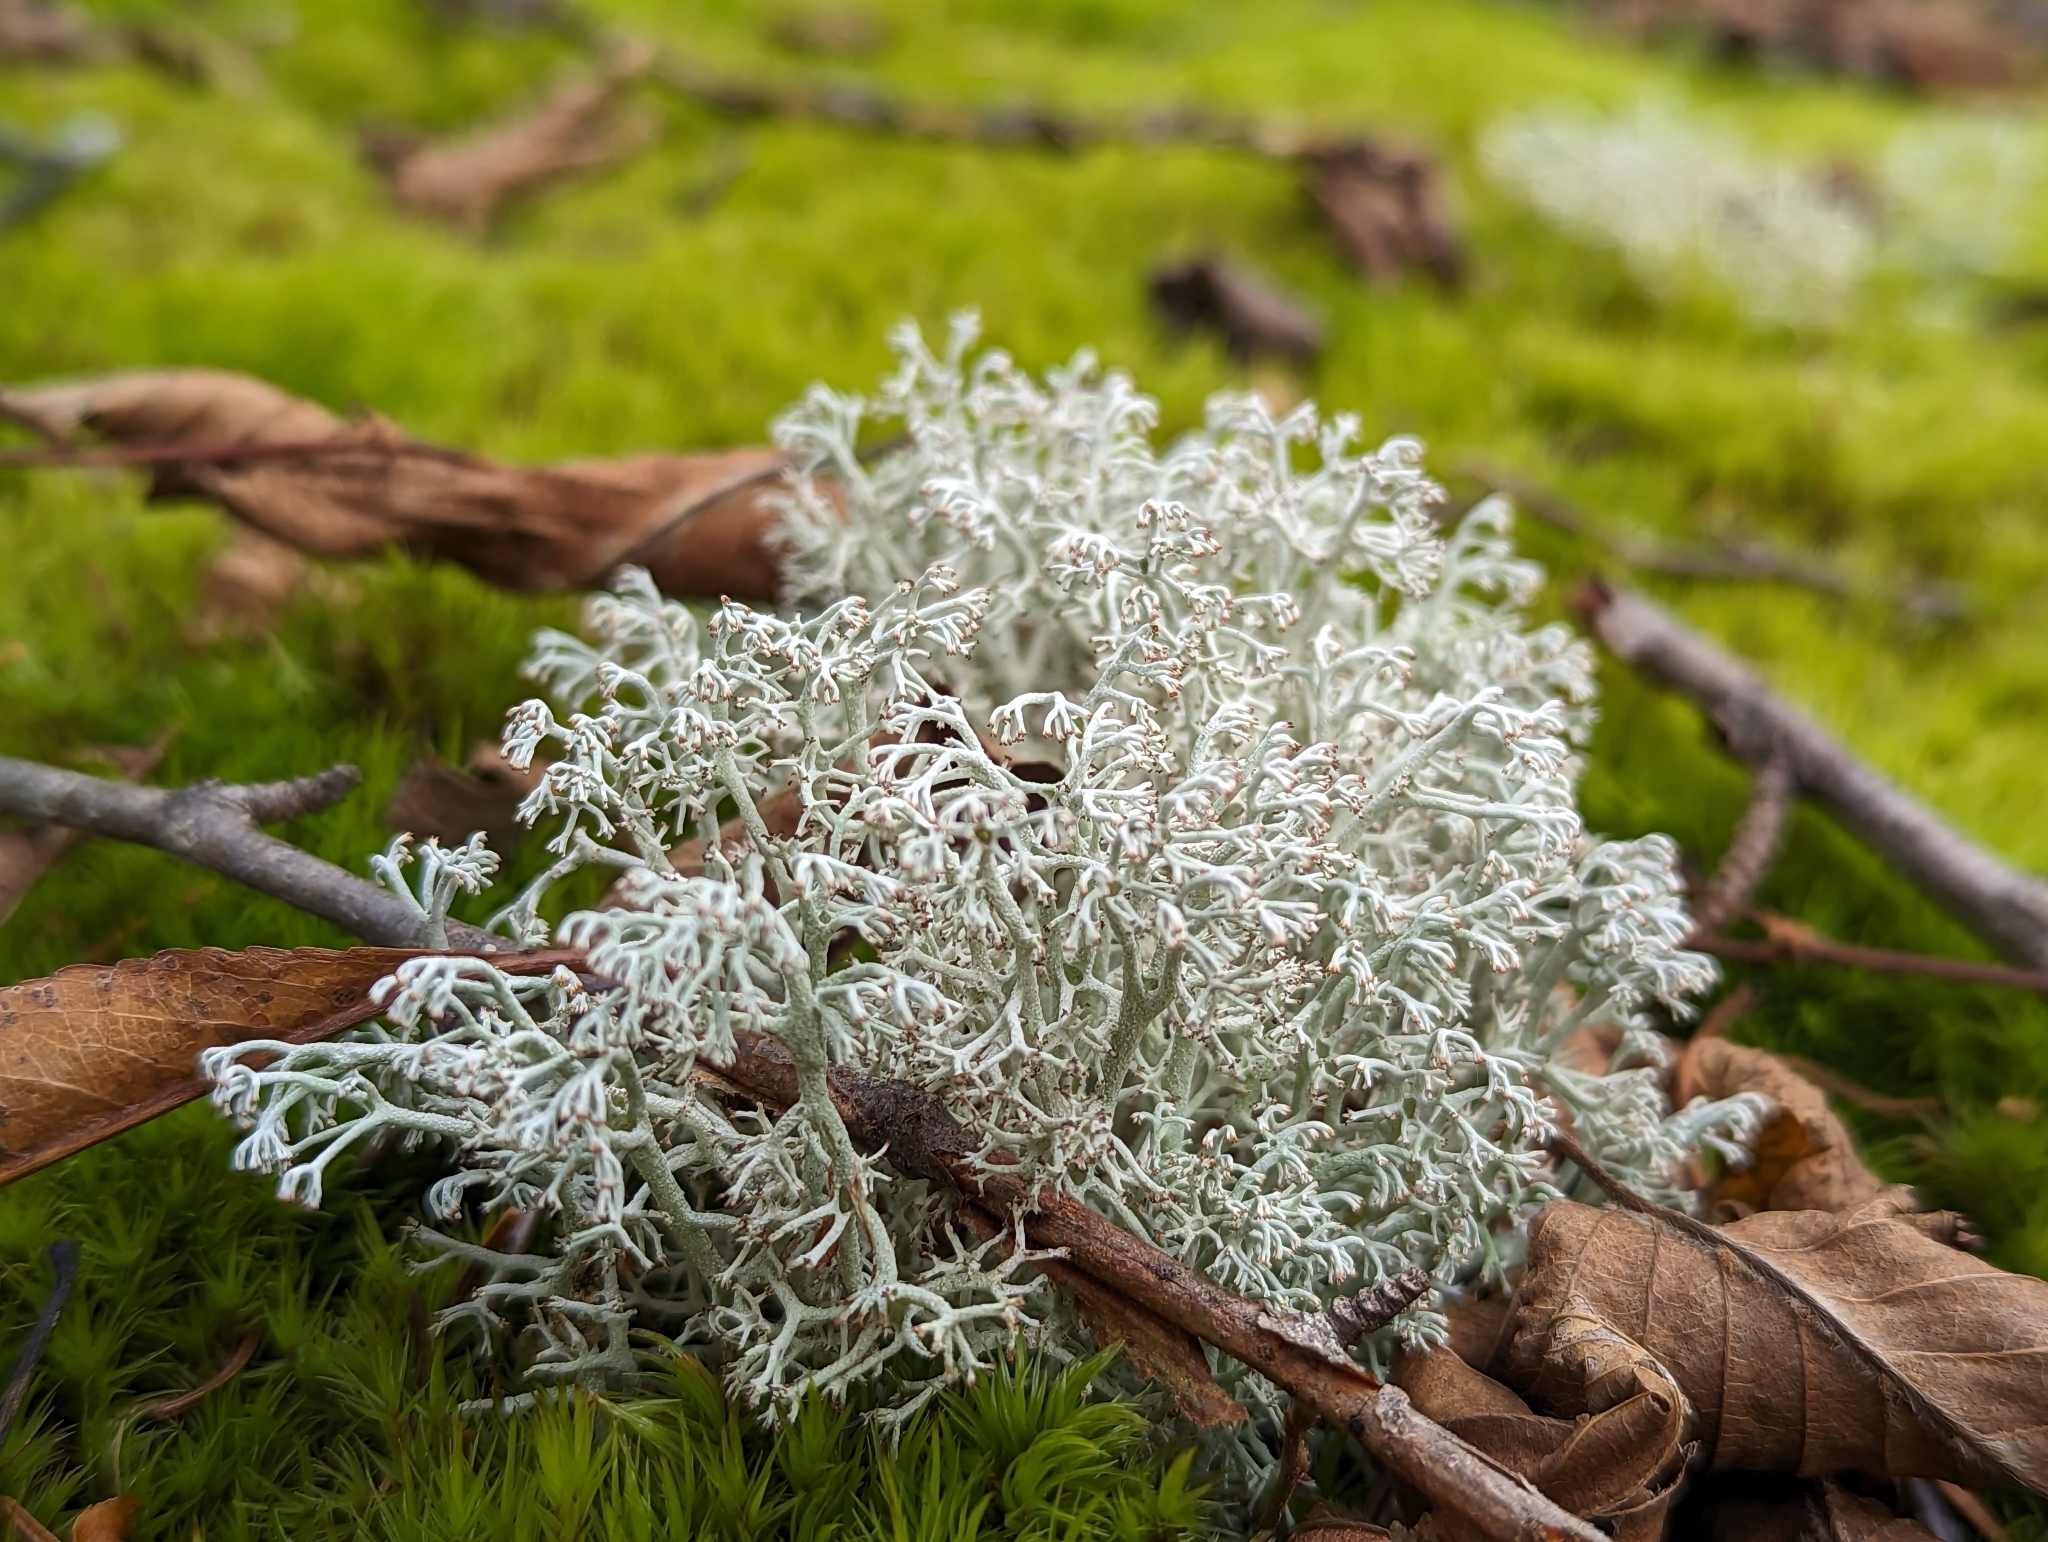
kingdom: Fungi
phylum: Ascomycota
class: Lecanoromycetes
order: Lecanorales
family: Cladoniaceae
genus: Cladonia
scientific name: Cladonia rangiferina
